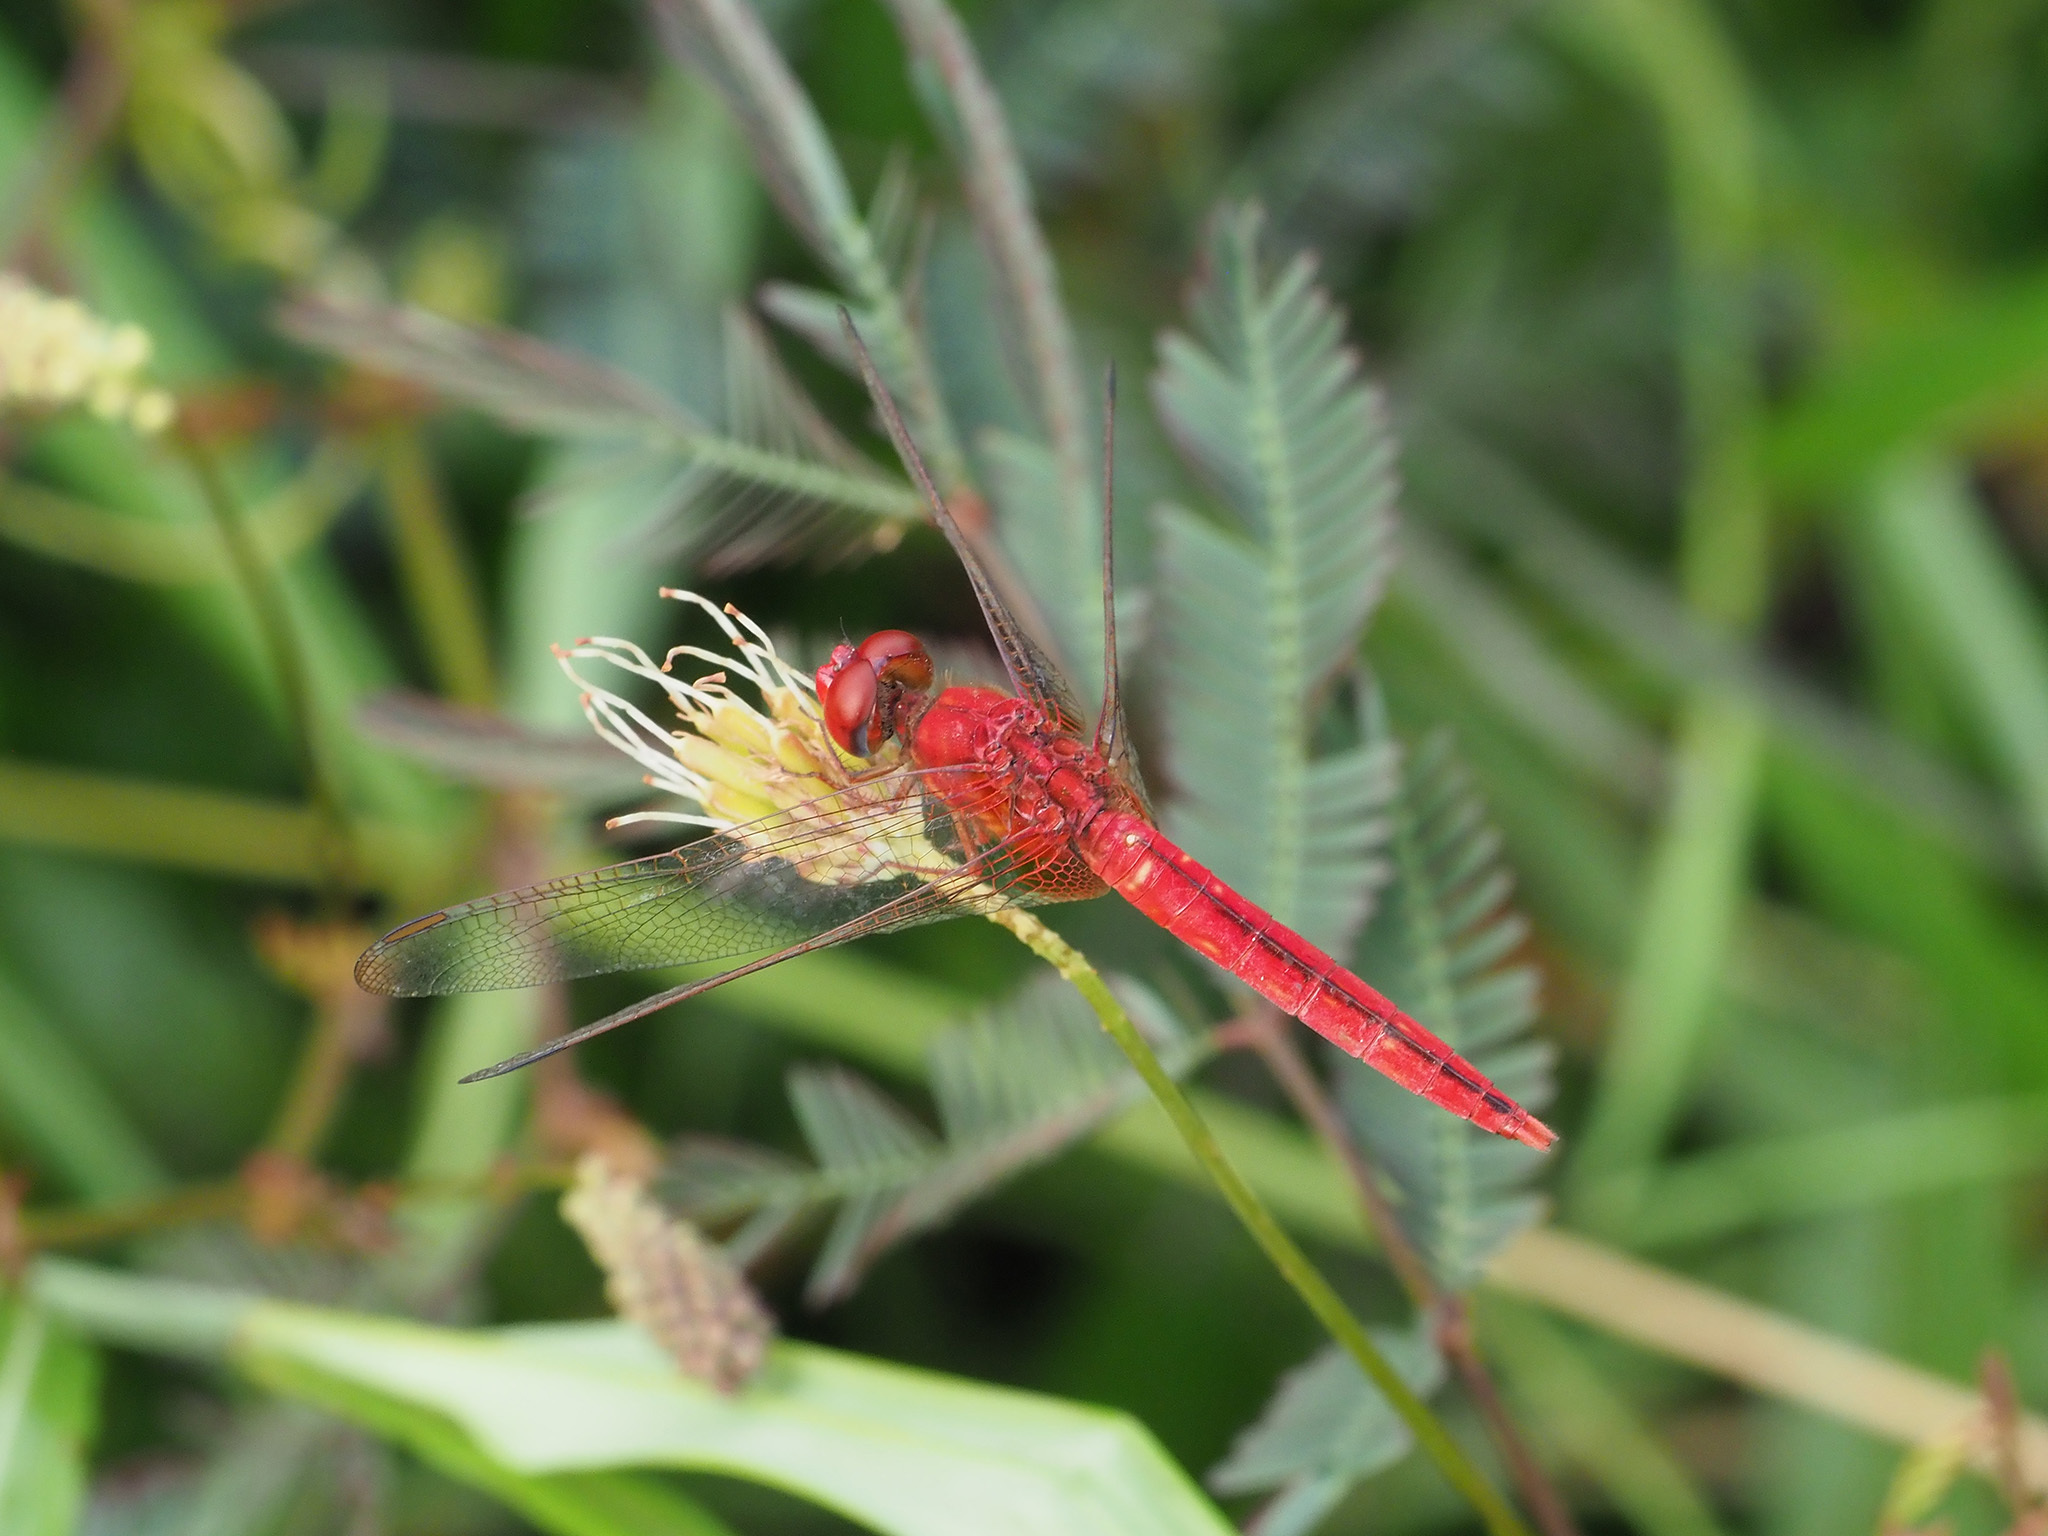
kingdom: Animalia
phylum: Arthropoda
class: Insecta
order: Odonata
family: Libellulidae
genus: Crocothemis
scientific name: Crocothemis servilia
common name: Scarlet skimmer
